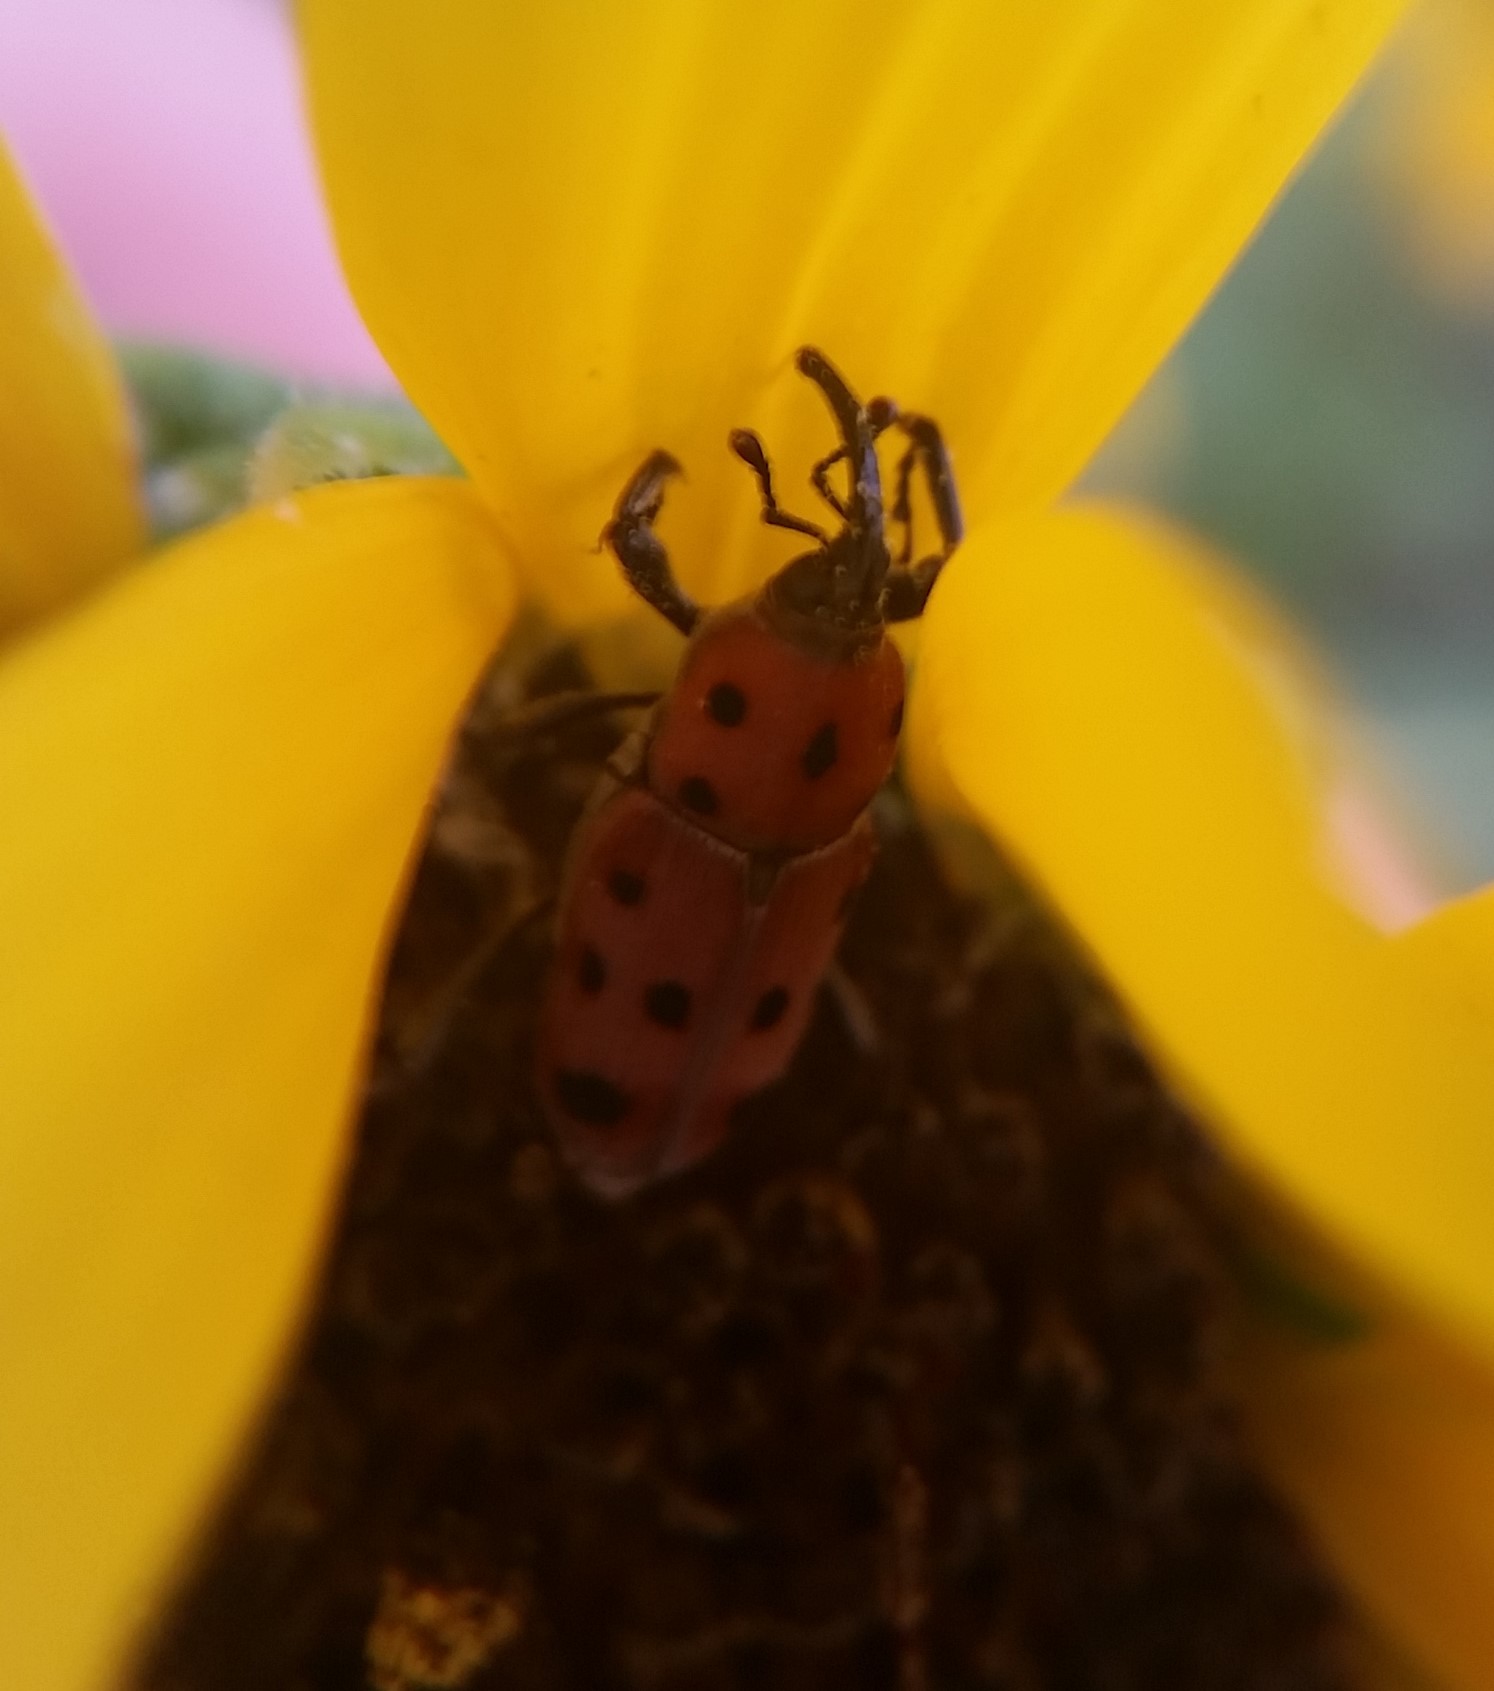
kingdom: Animalia
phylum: Arthropoda
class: Insecta
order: Coleoptera
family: Dryophthoridae
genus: Rhodobaenus
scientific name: Rhodobaenus tredecimpunctatus
